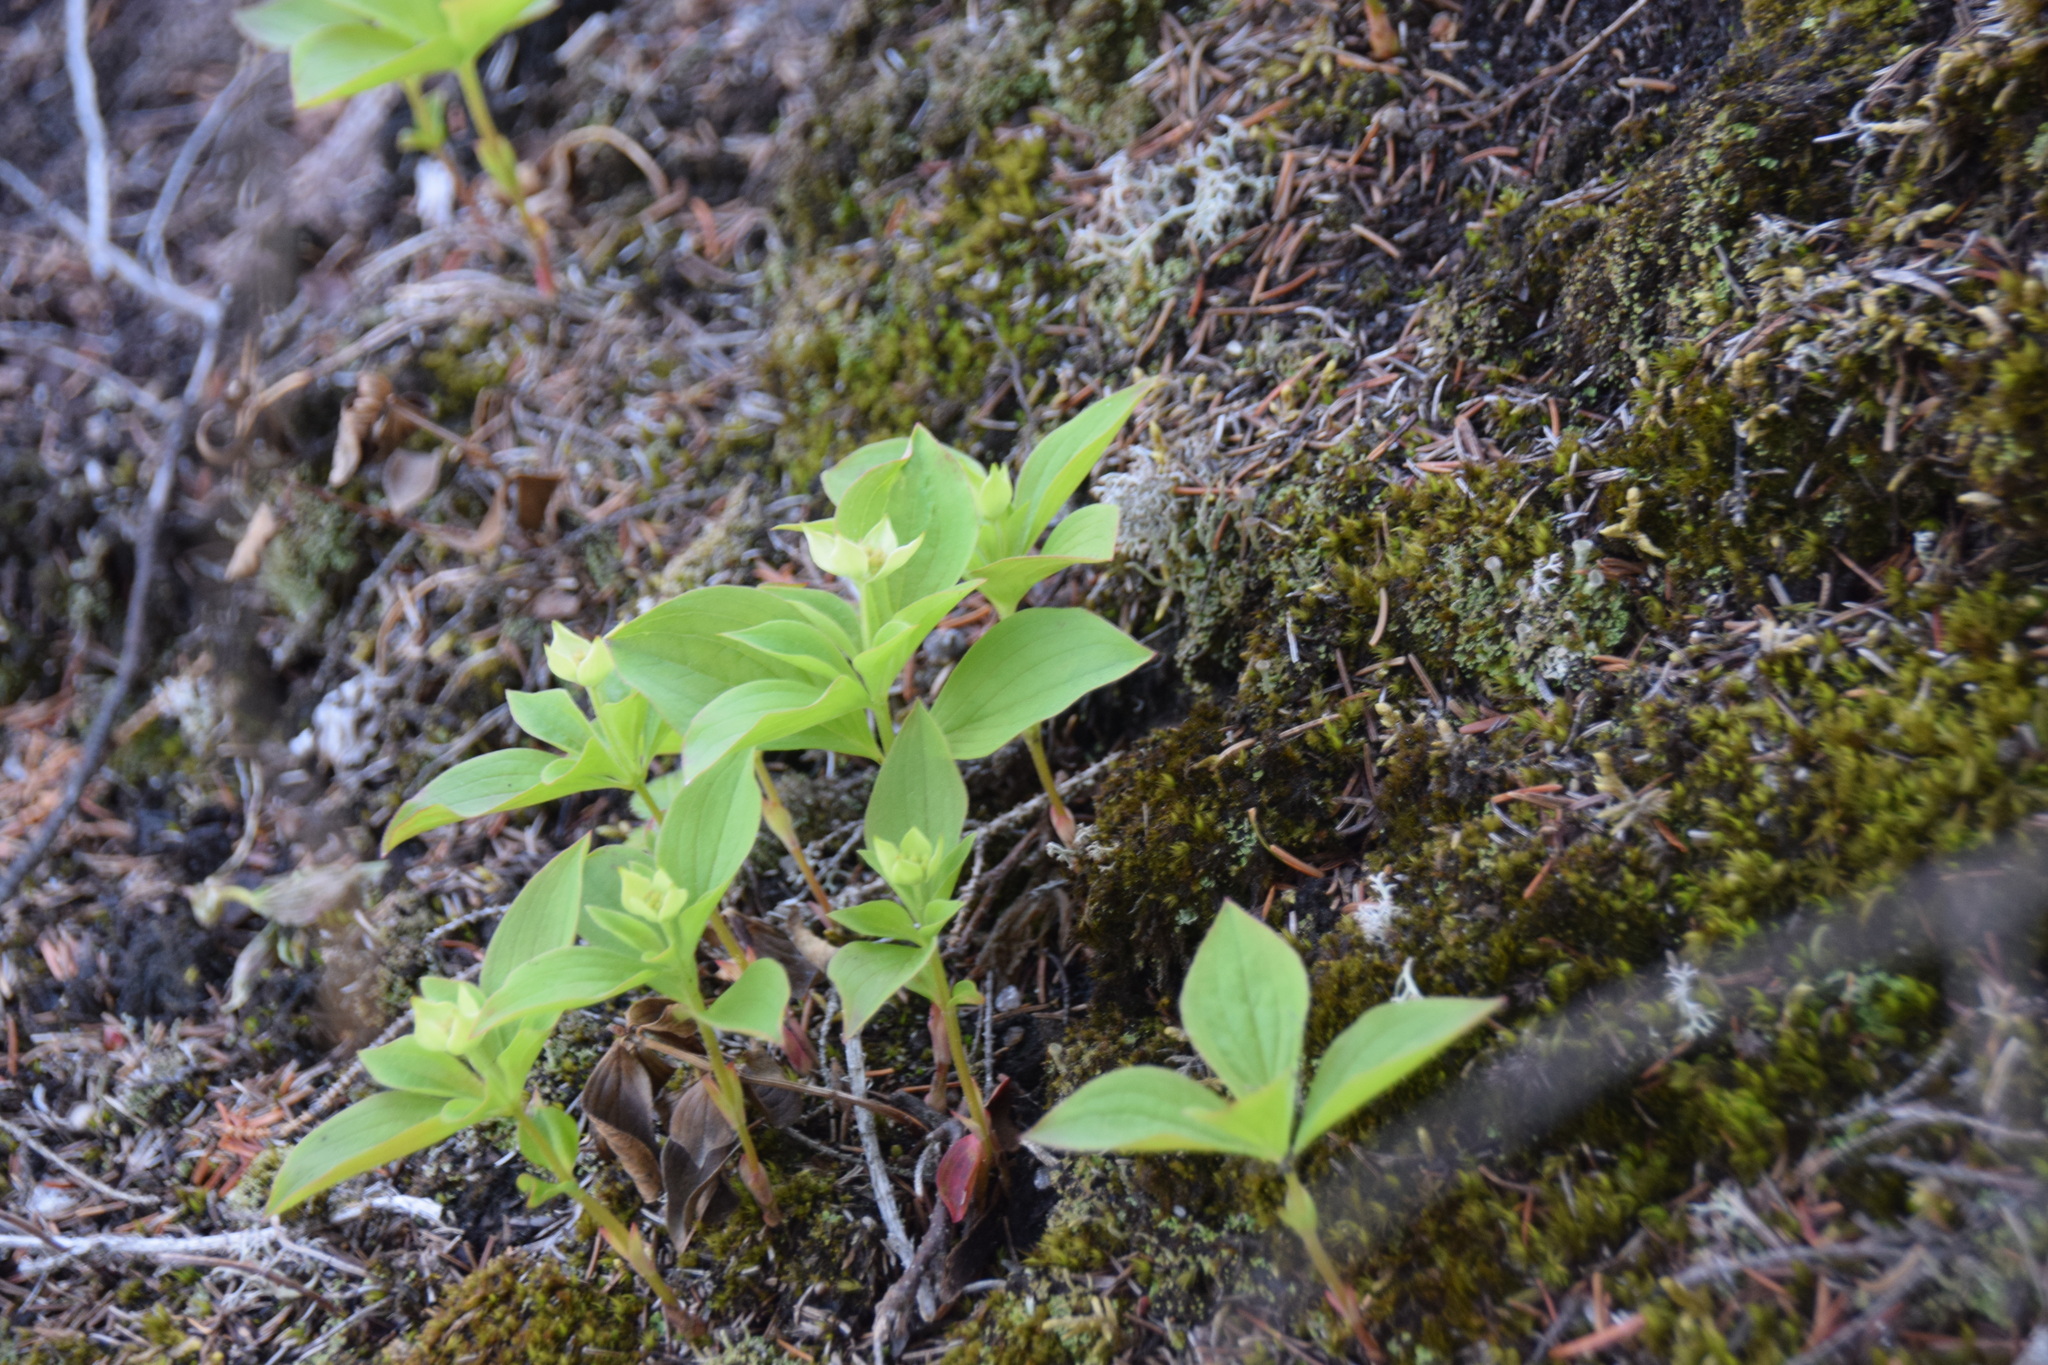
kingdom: Plantae
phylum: Tracheophyta
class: Magnoliopsida
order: Cornales
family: Cornaceae
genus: Cornus
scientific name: Cornus canadensis
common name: Creeping dogwood
